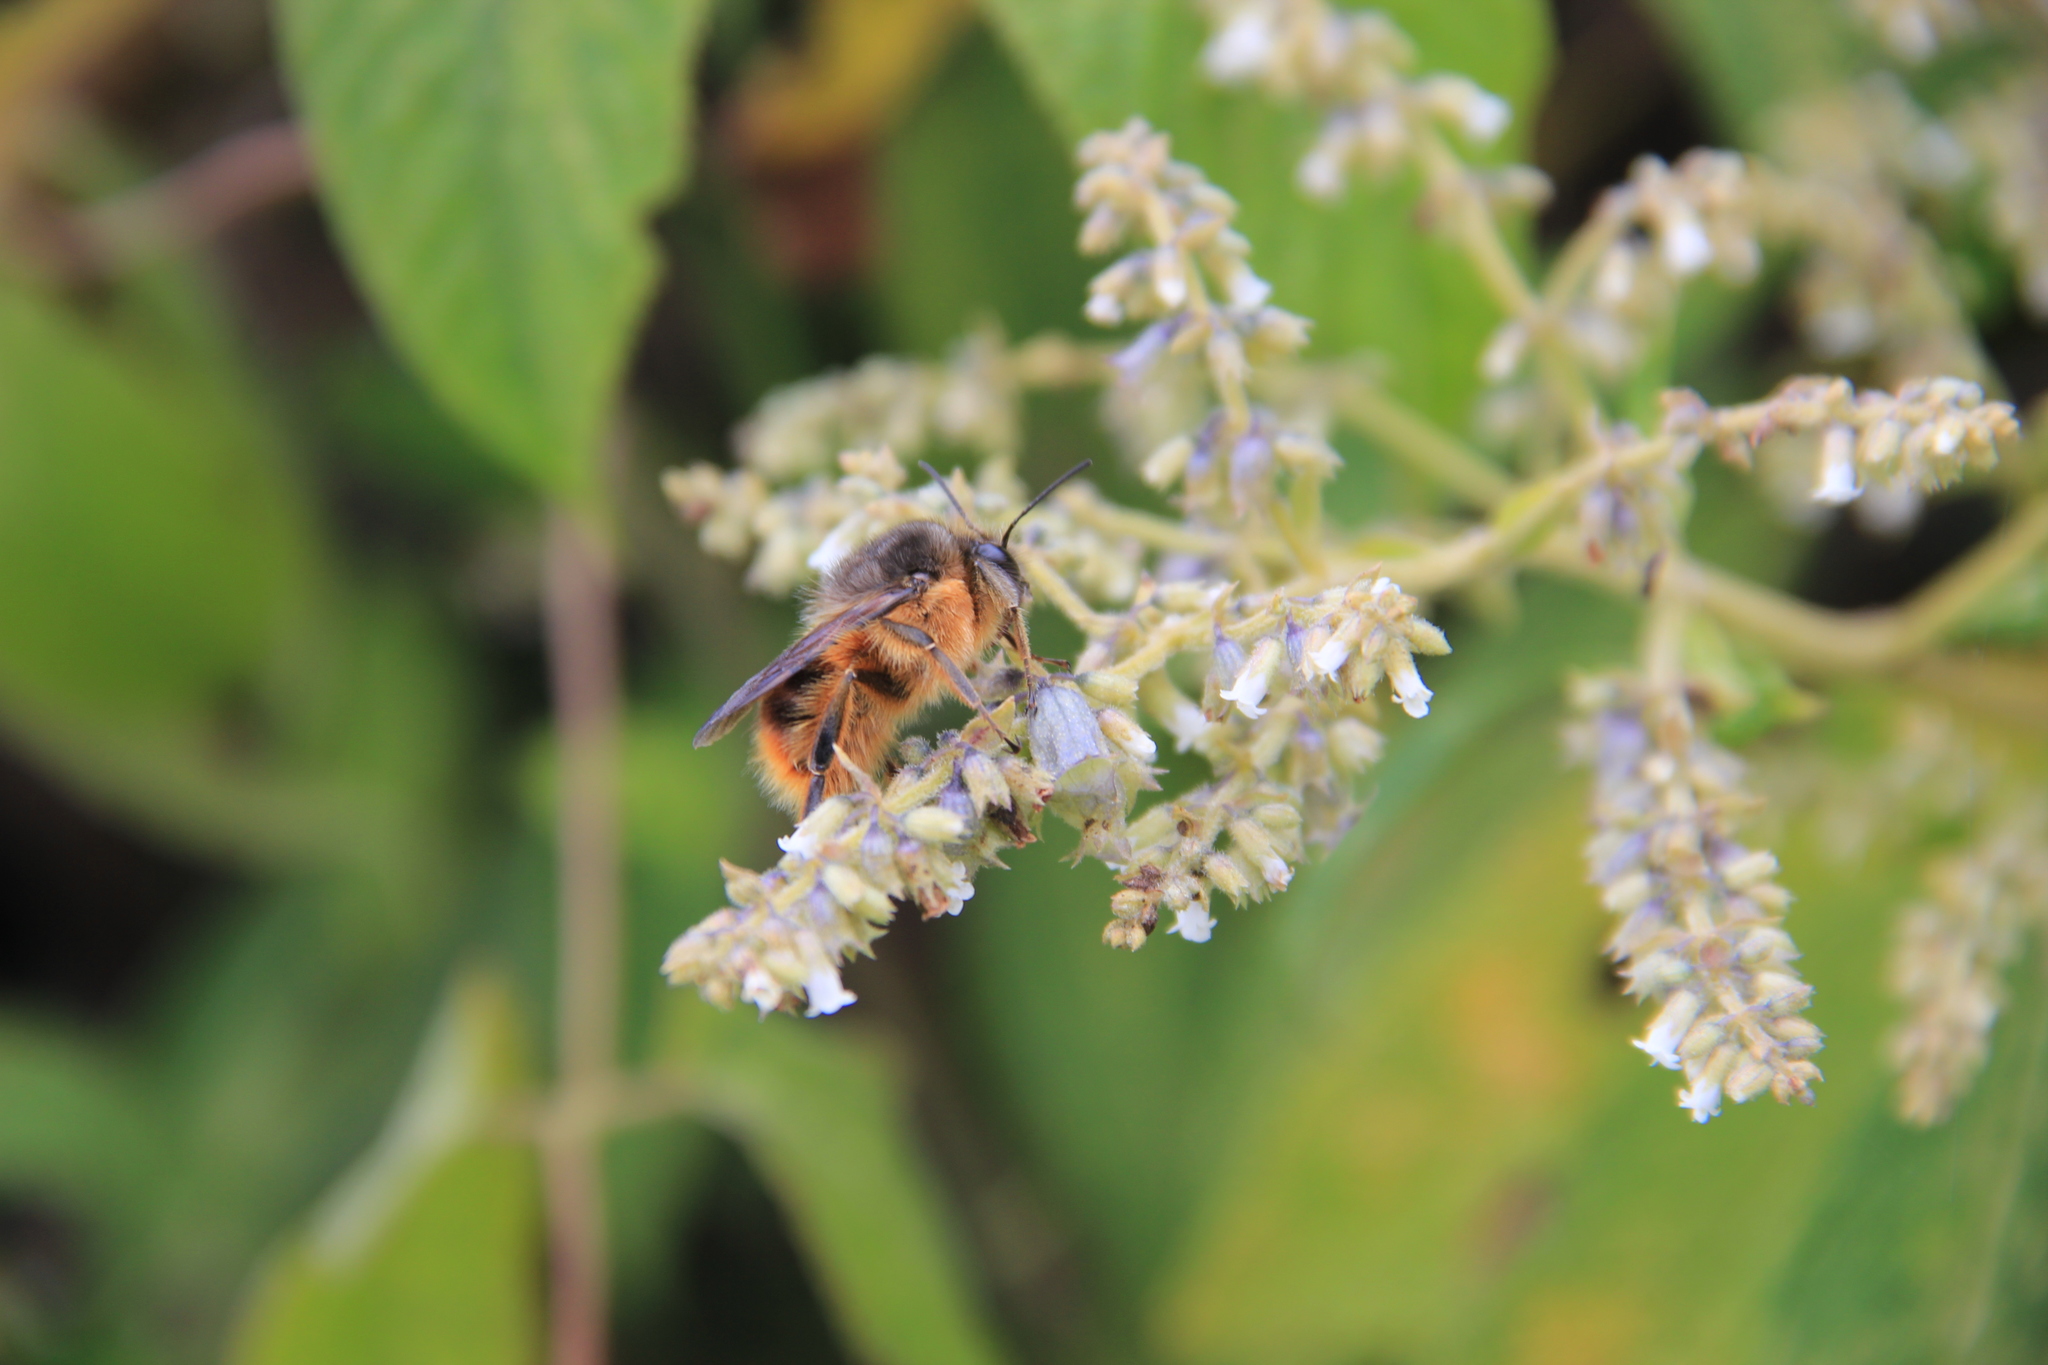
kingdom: Animalia
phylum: Arthropoda
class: Insecta
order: Hymenoptera
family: Apidae
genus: Bombus
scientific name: Bombus handlirschi
